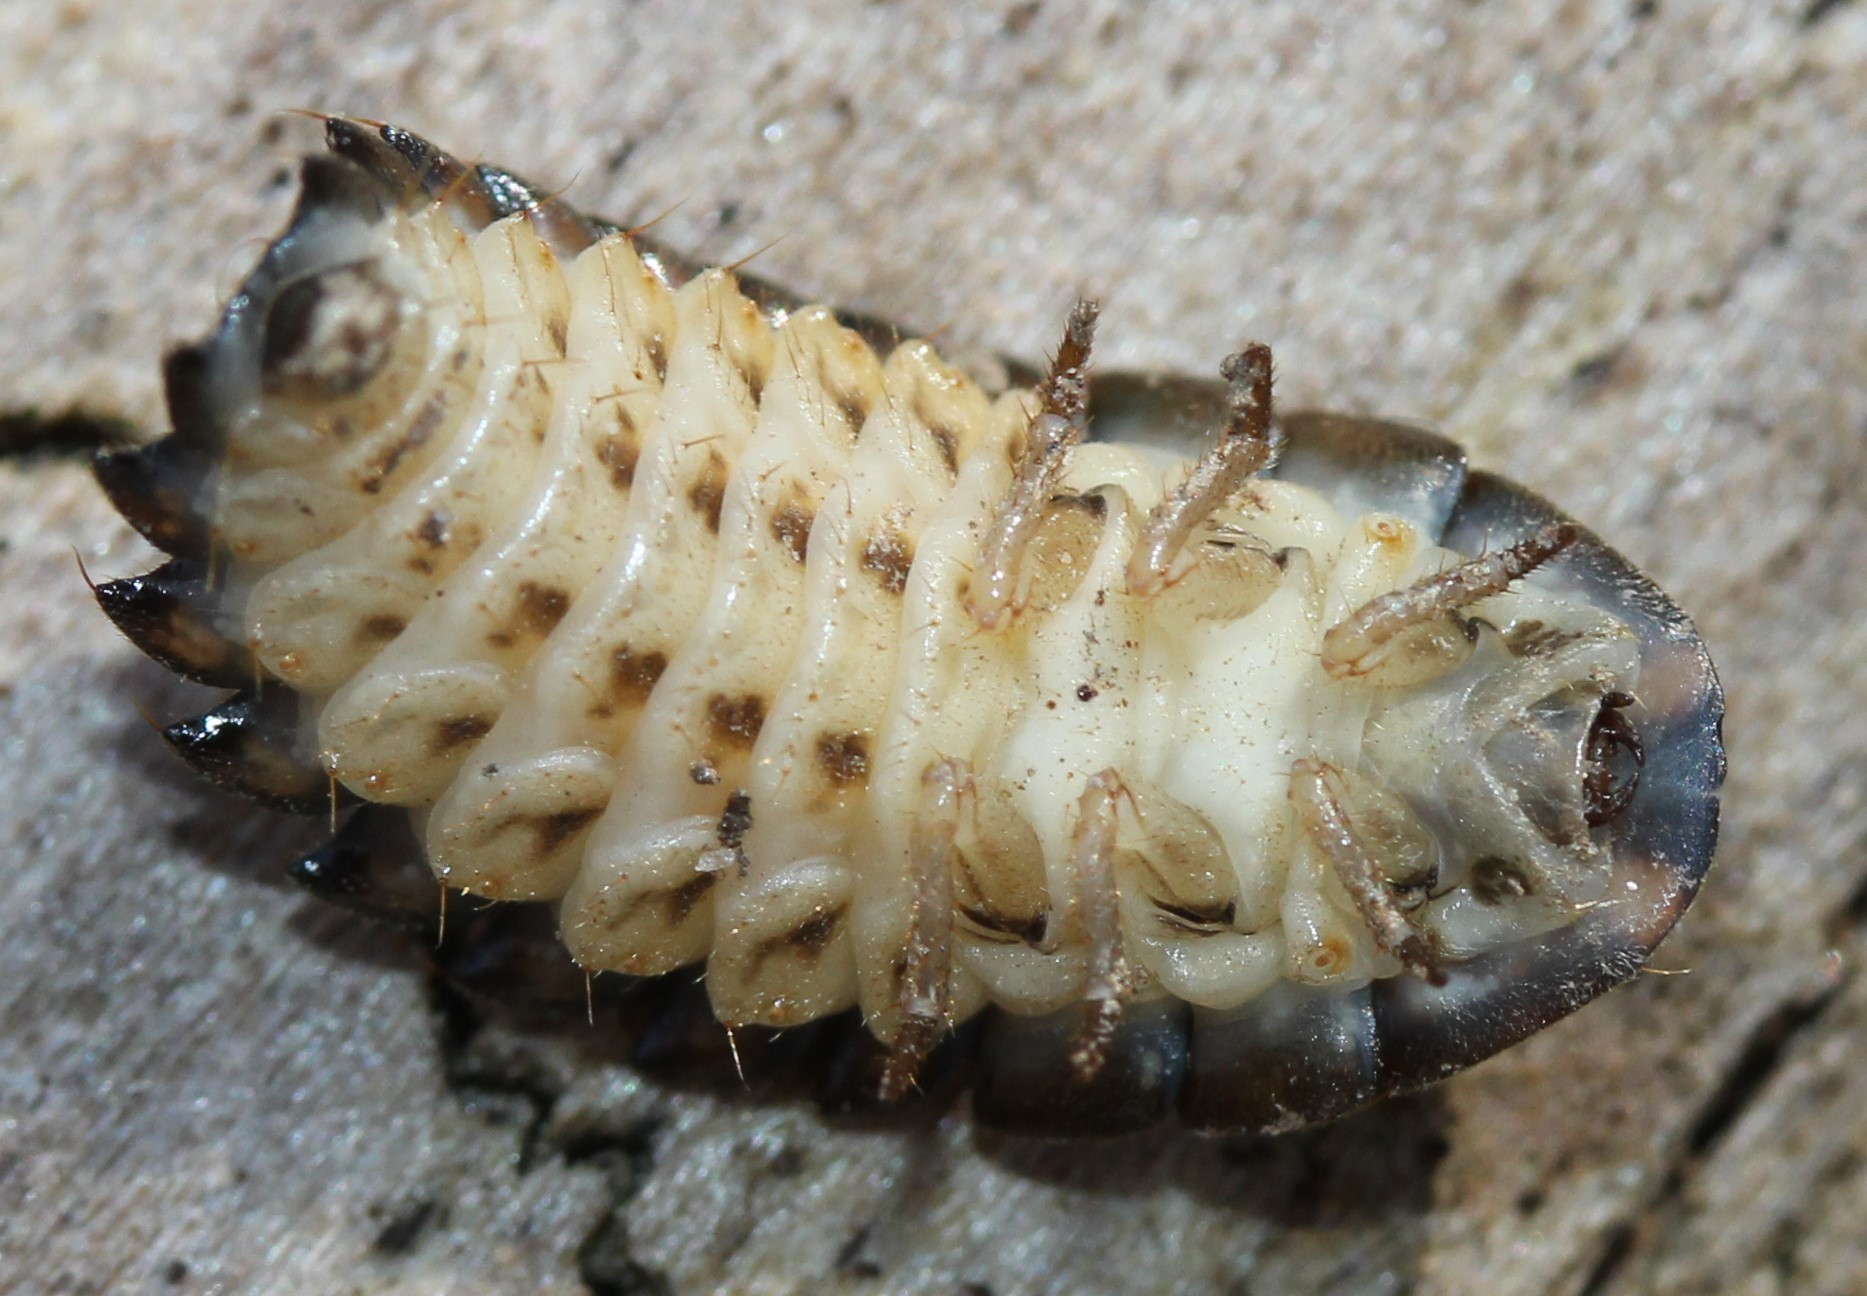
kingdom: Animalia
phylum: Arthropoda
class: Insecta
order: Coleoptera
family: Lampyridae
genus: Photuris
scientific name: Photuris
